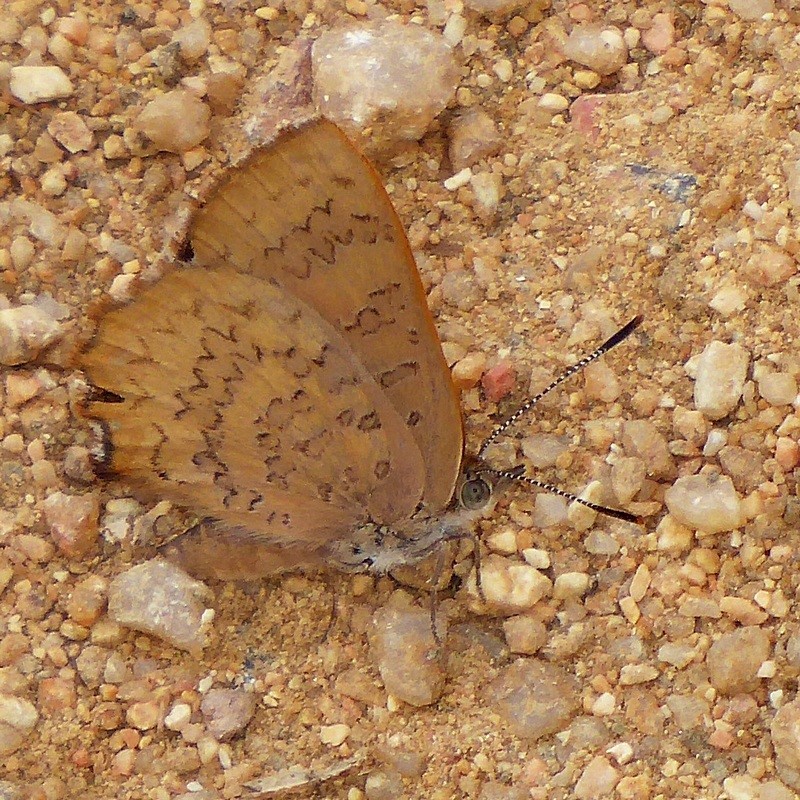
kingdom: Animalia
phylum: Arthropoda
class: Insecta
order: Lepidoptera
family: Lycaenidae
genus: Paralucia
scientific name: Paralucia pyrodiscus
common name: Fiery copper
